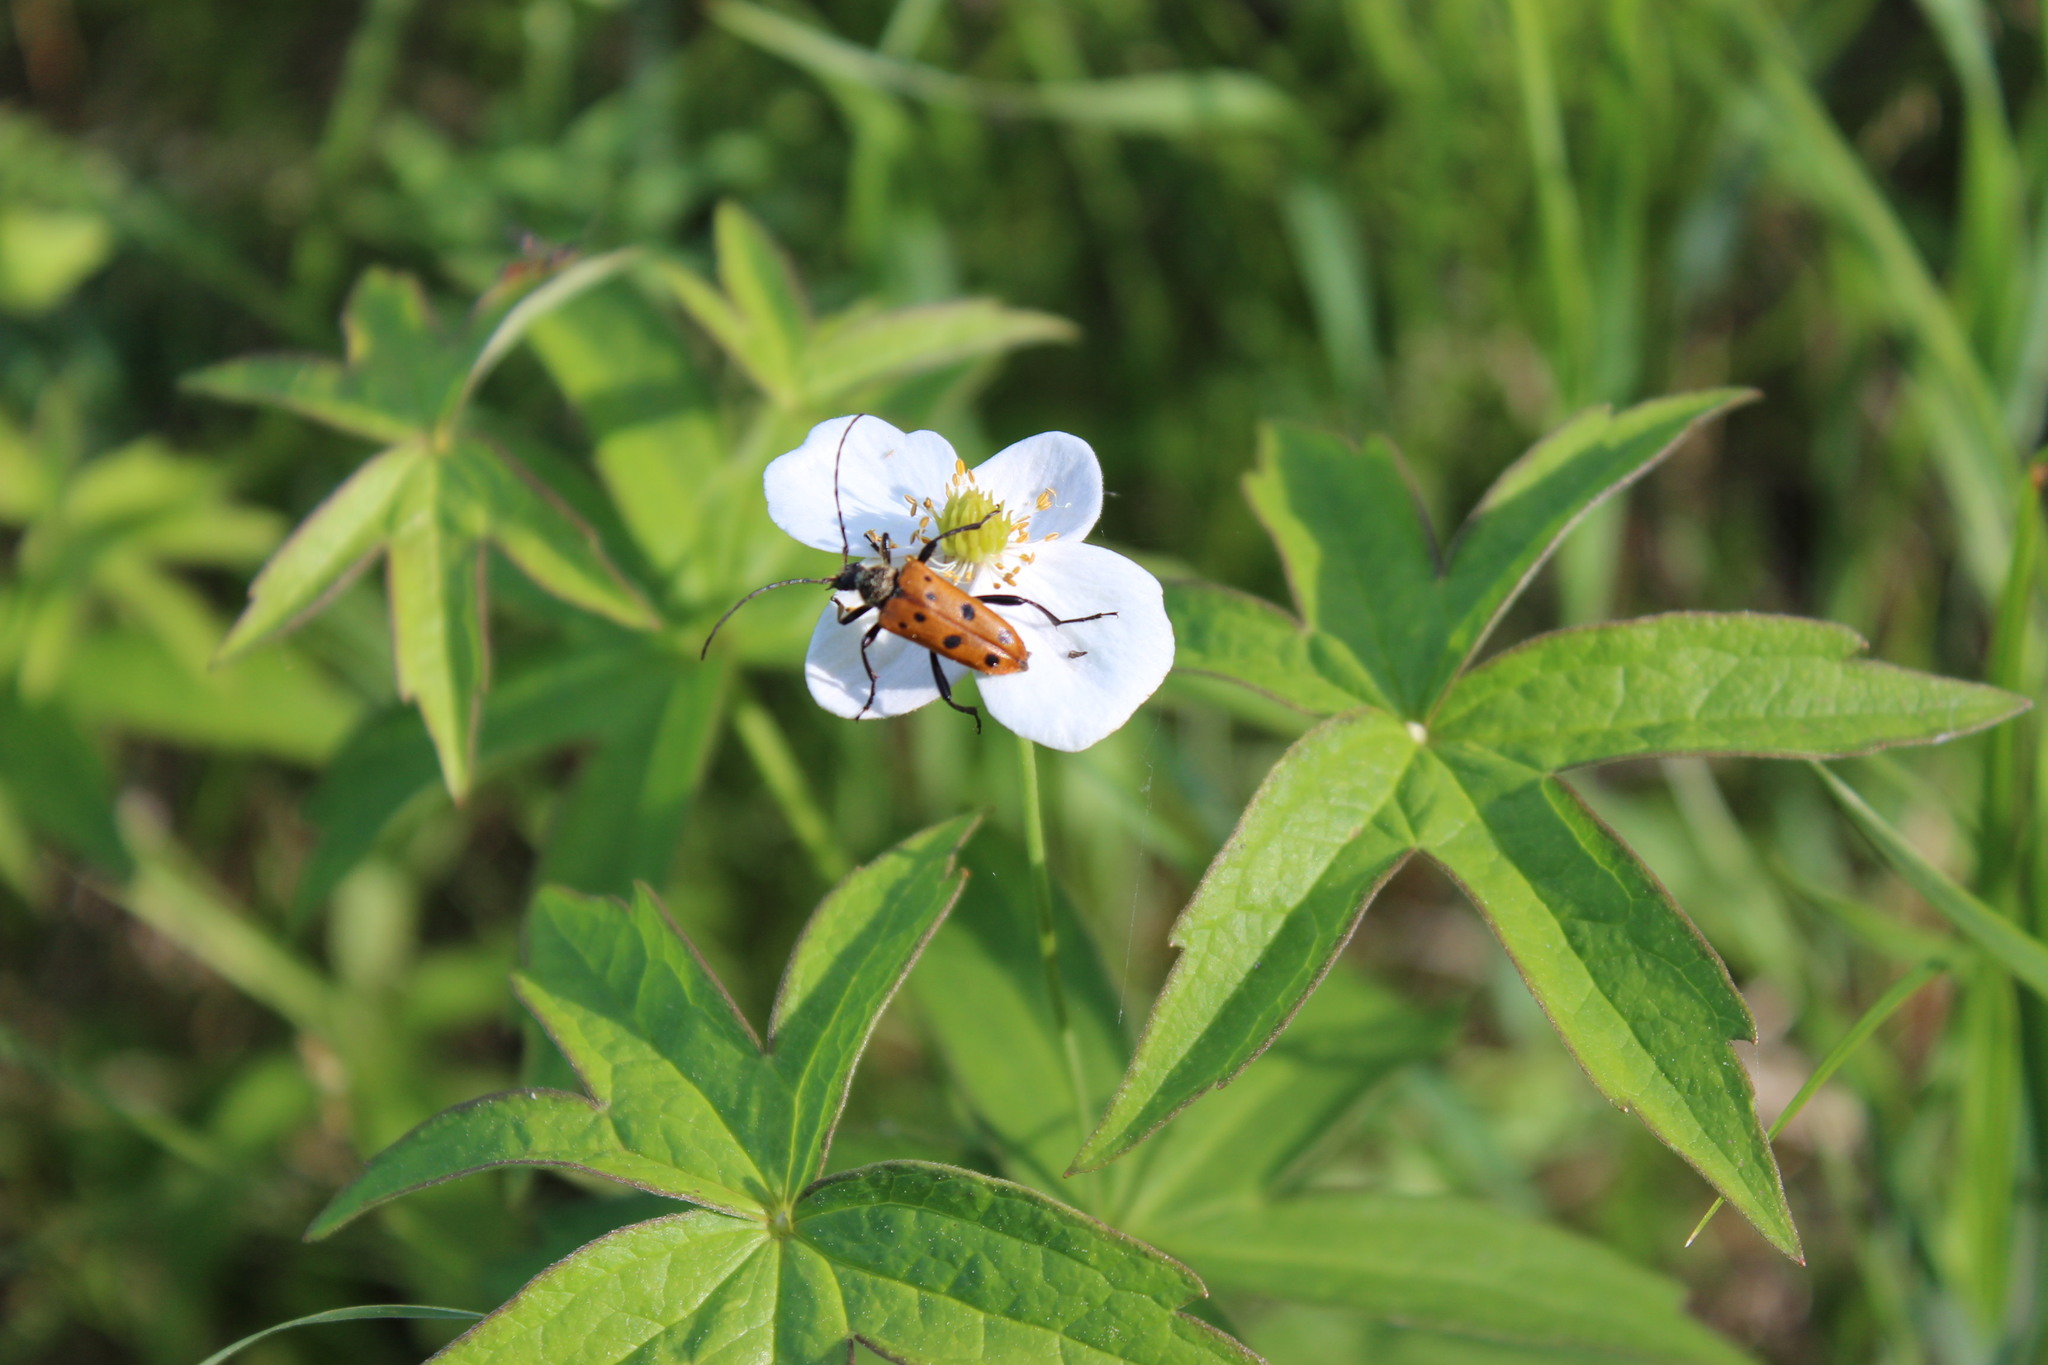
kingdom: Animalia
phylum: Arthropoda
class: Insecta
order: Coleoptera
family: Cerambycidae
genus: Oedecnema
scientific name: Oedecnema gebleri
